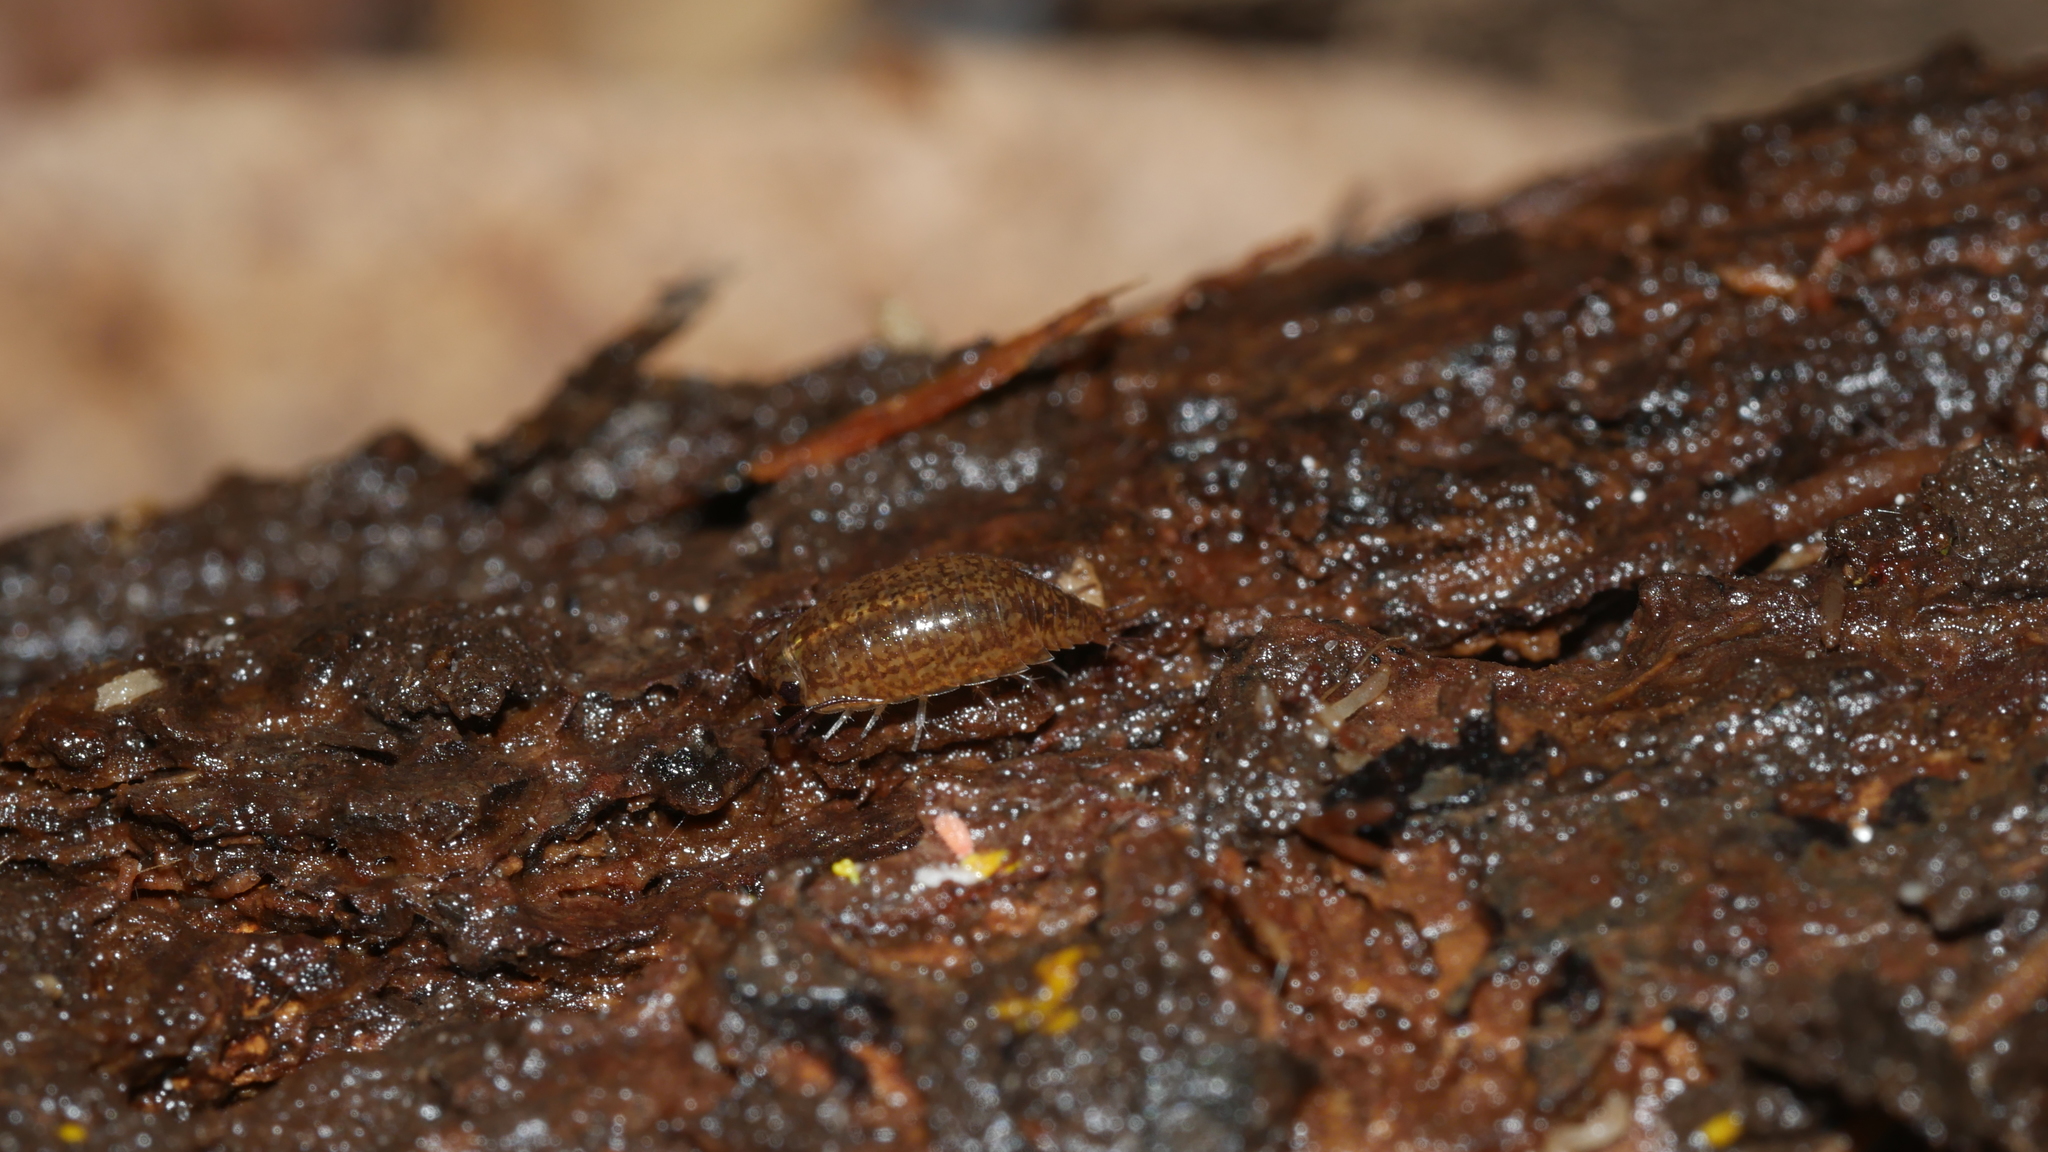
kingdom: Animalia
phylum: Arthropoda
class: Malacostraca
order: Isopoda
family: Ligiidae
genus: Ligidium
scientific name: Ligidium elrodii
